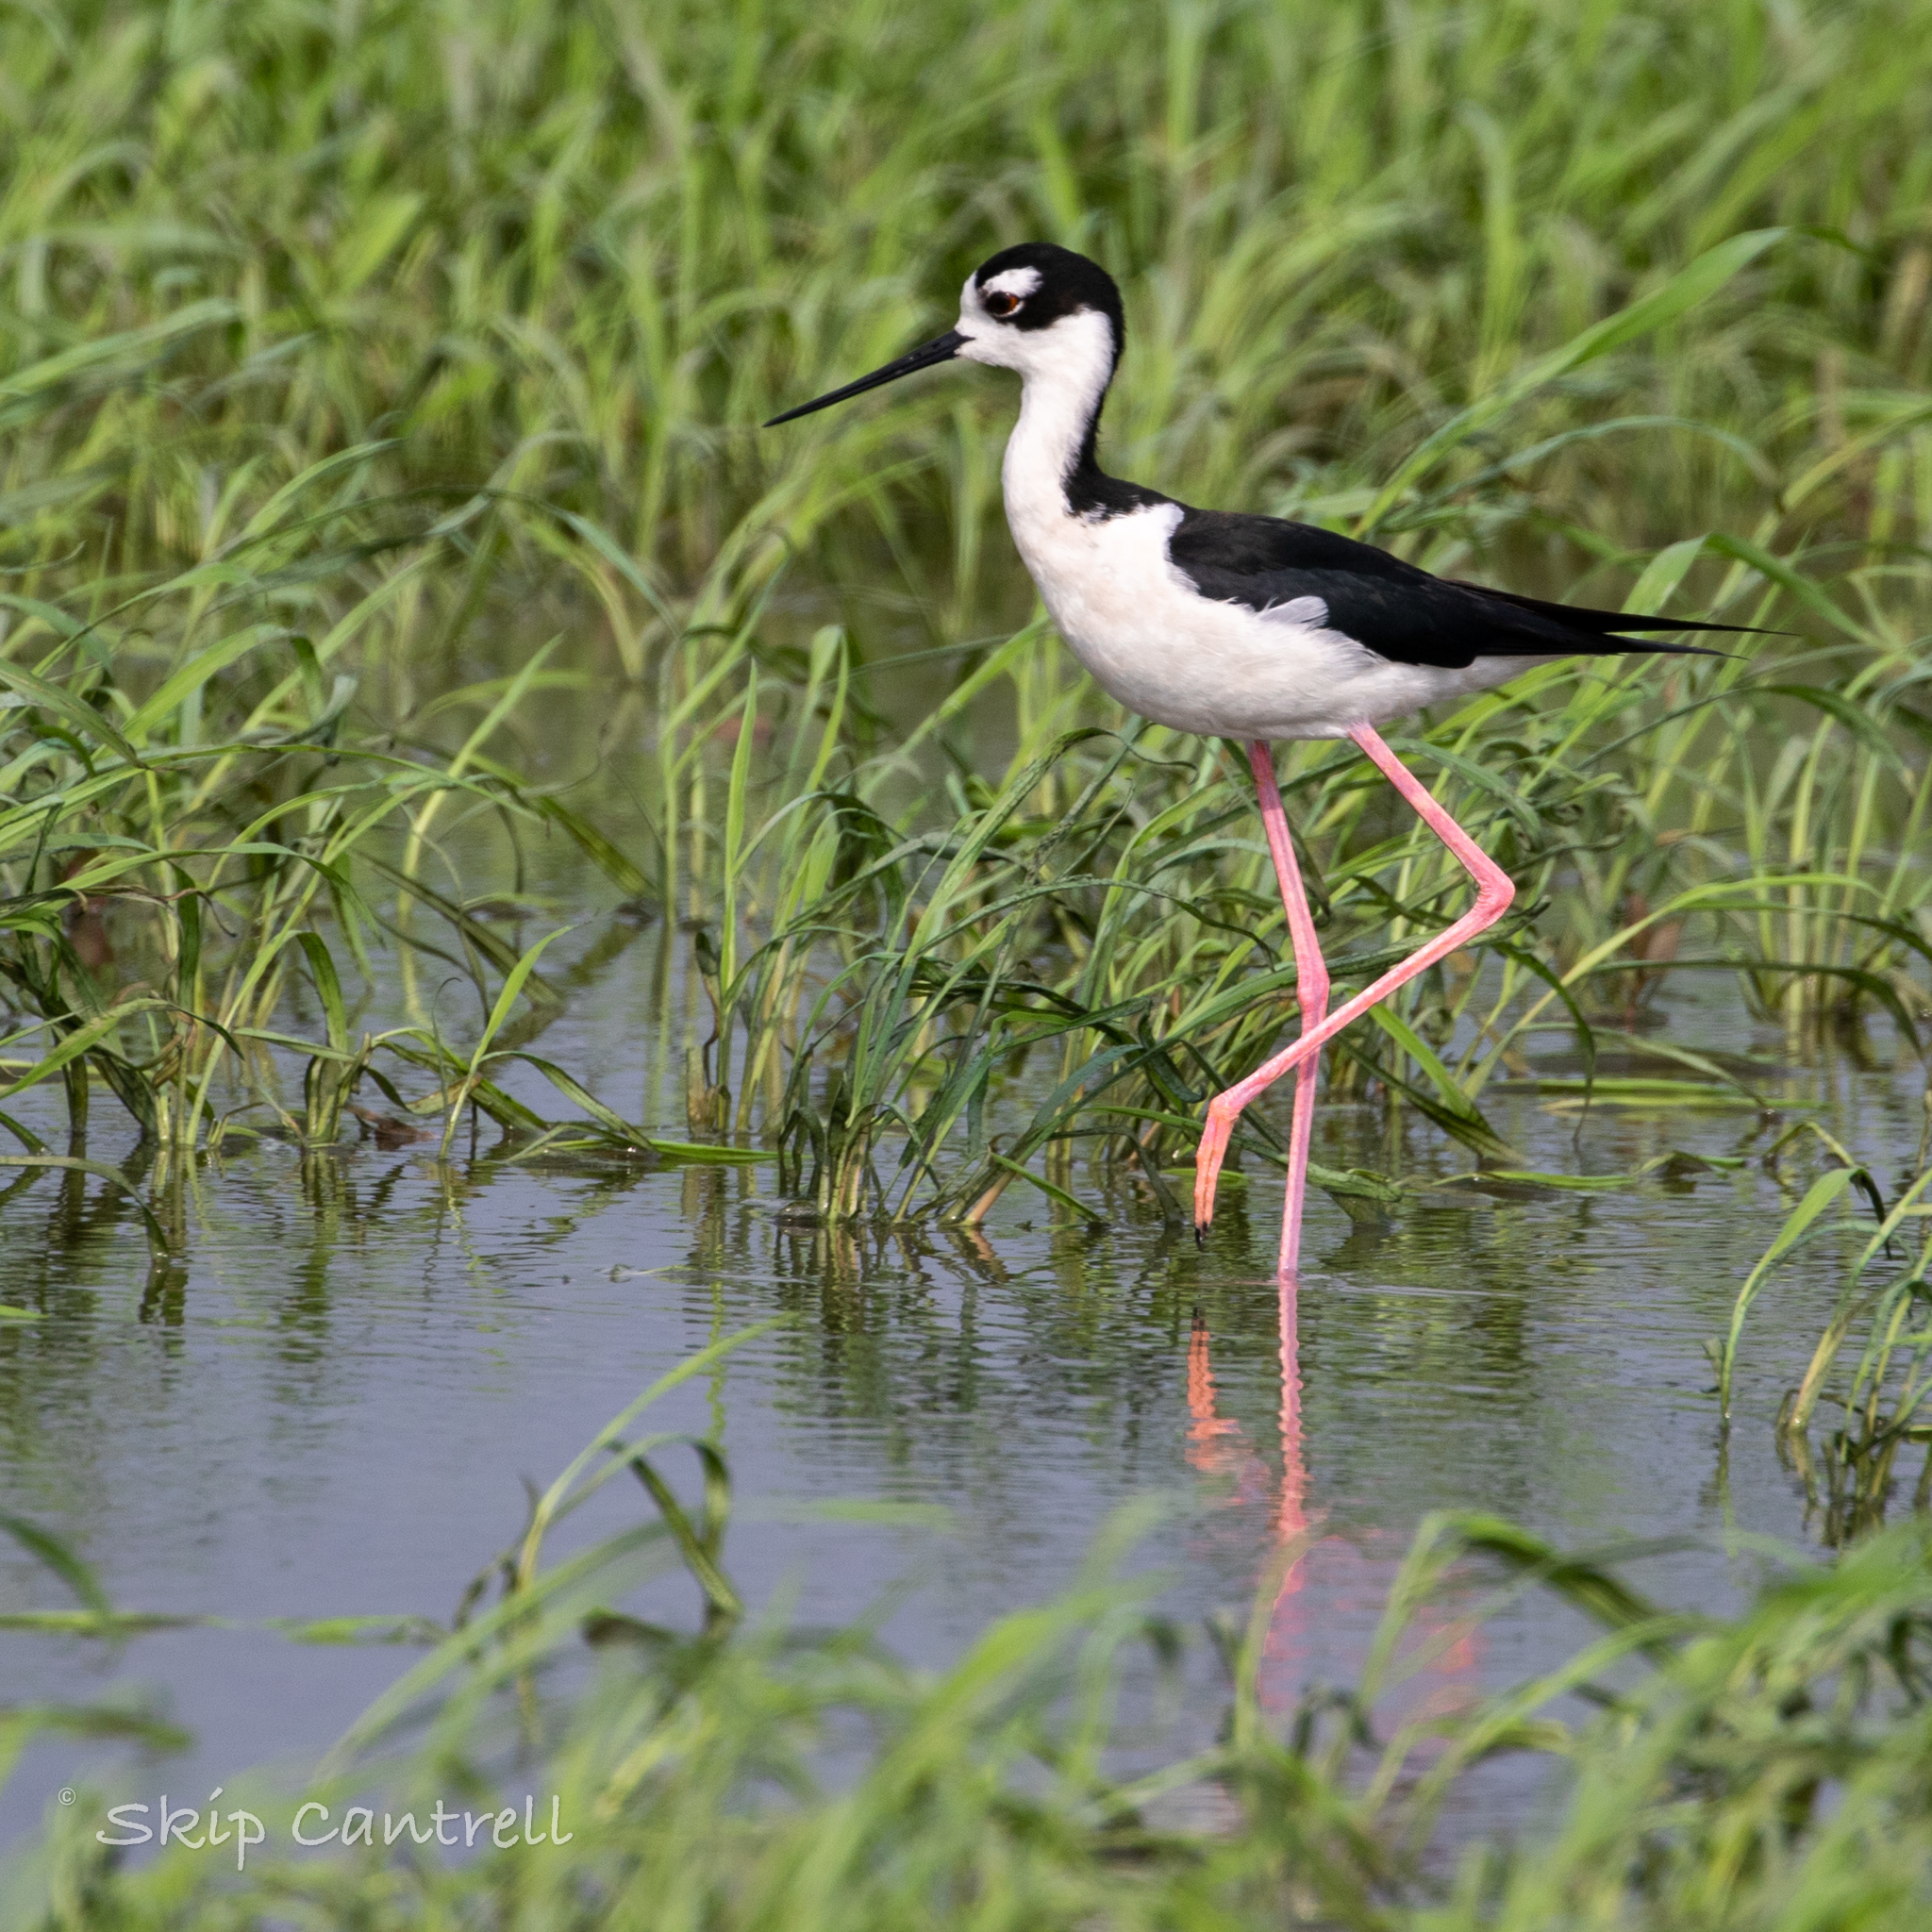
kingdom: Animalia
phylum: Chordata
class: Aves
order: Charadriiformes
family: Recurvirostridae
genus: Himantopus
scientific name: Himantopus mexicanus
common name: Black-necked stilt
